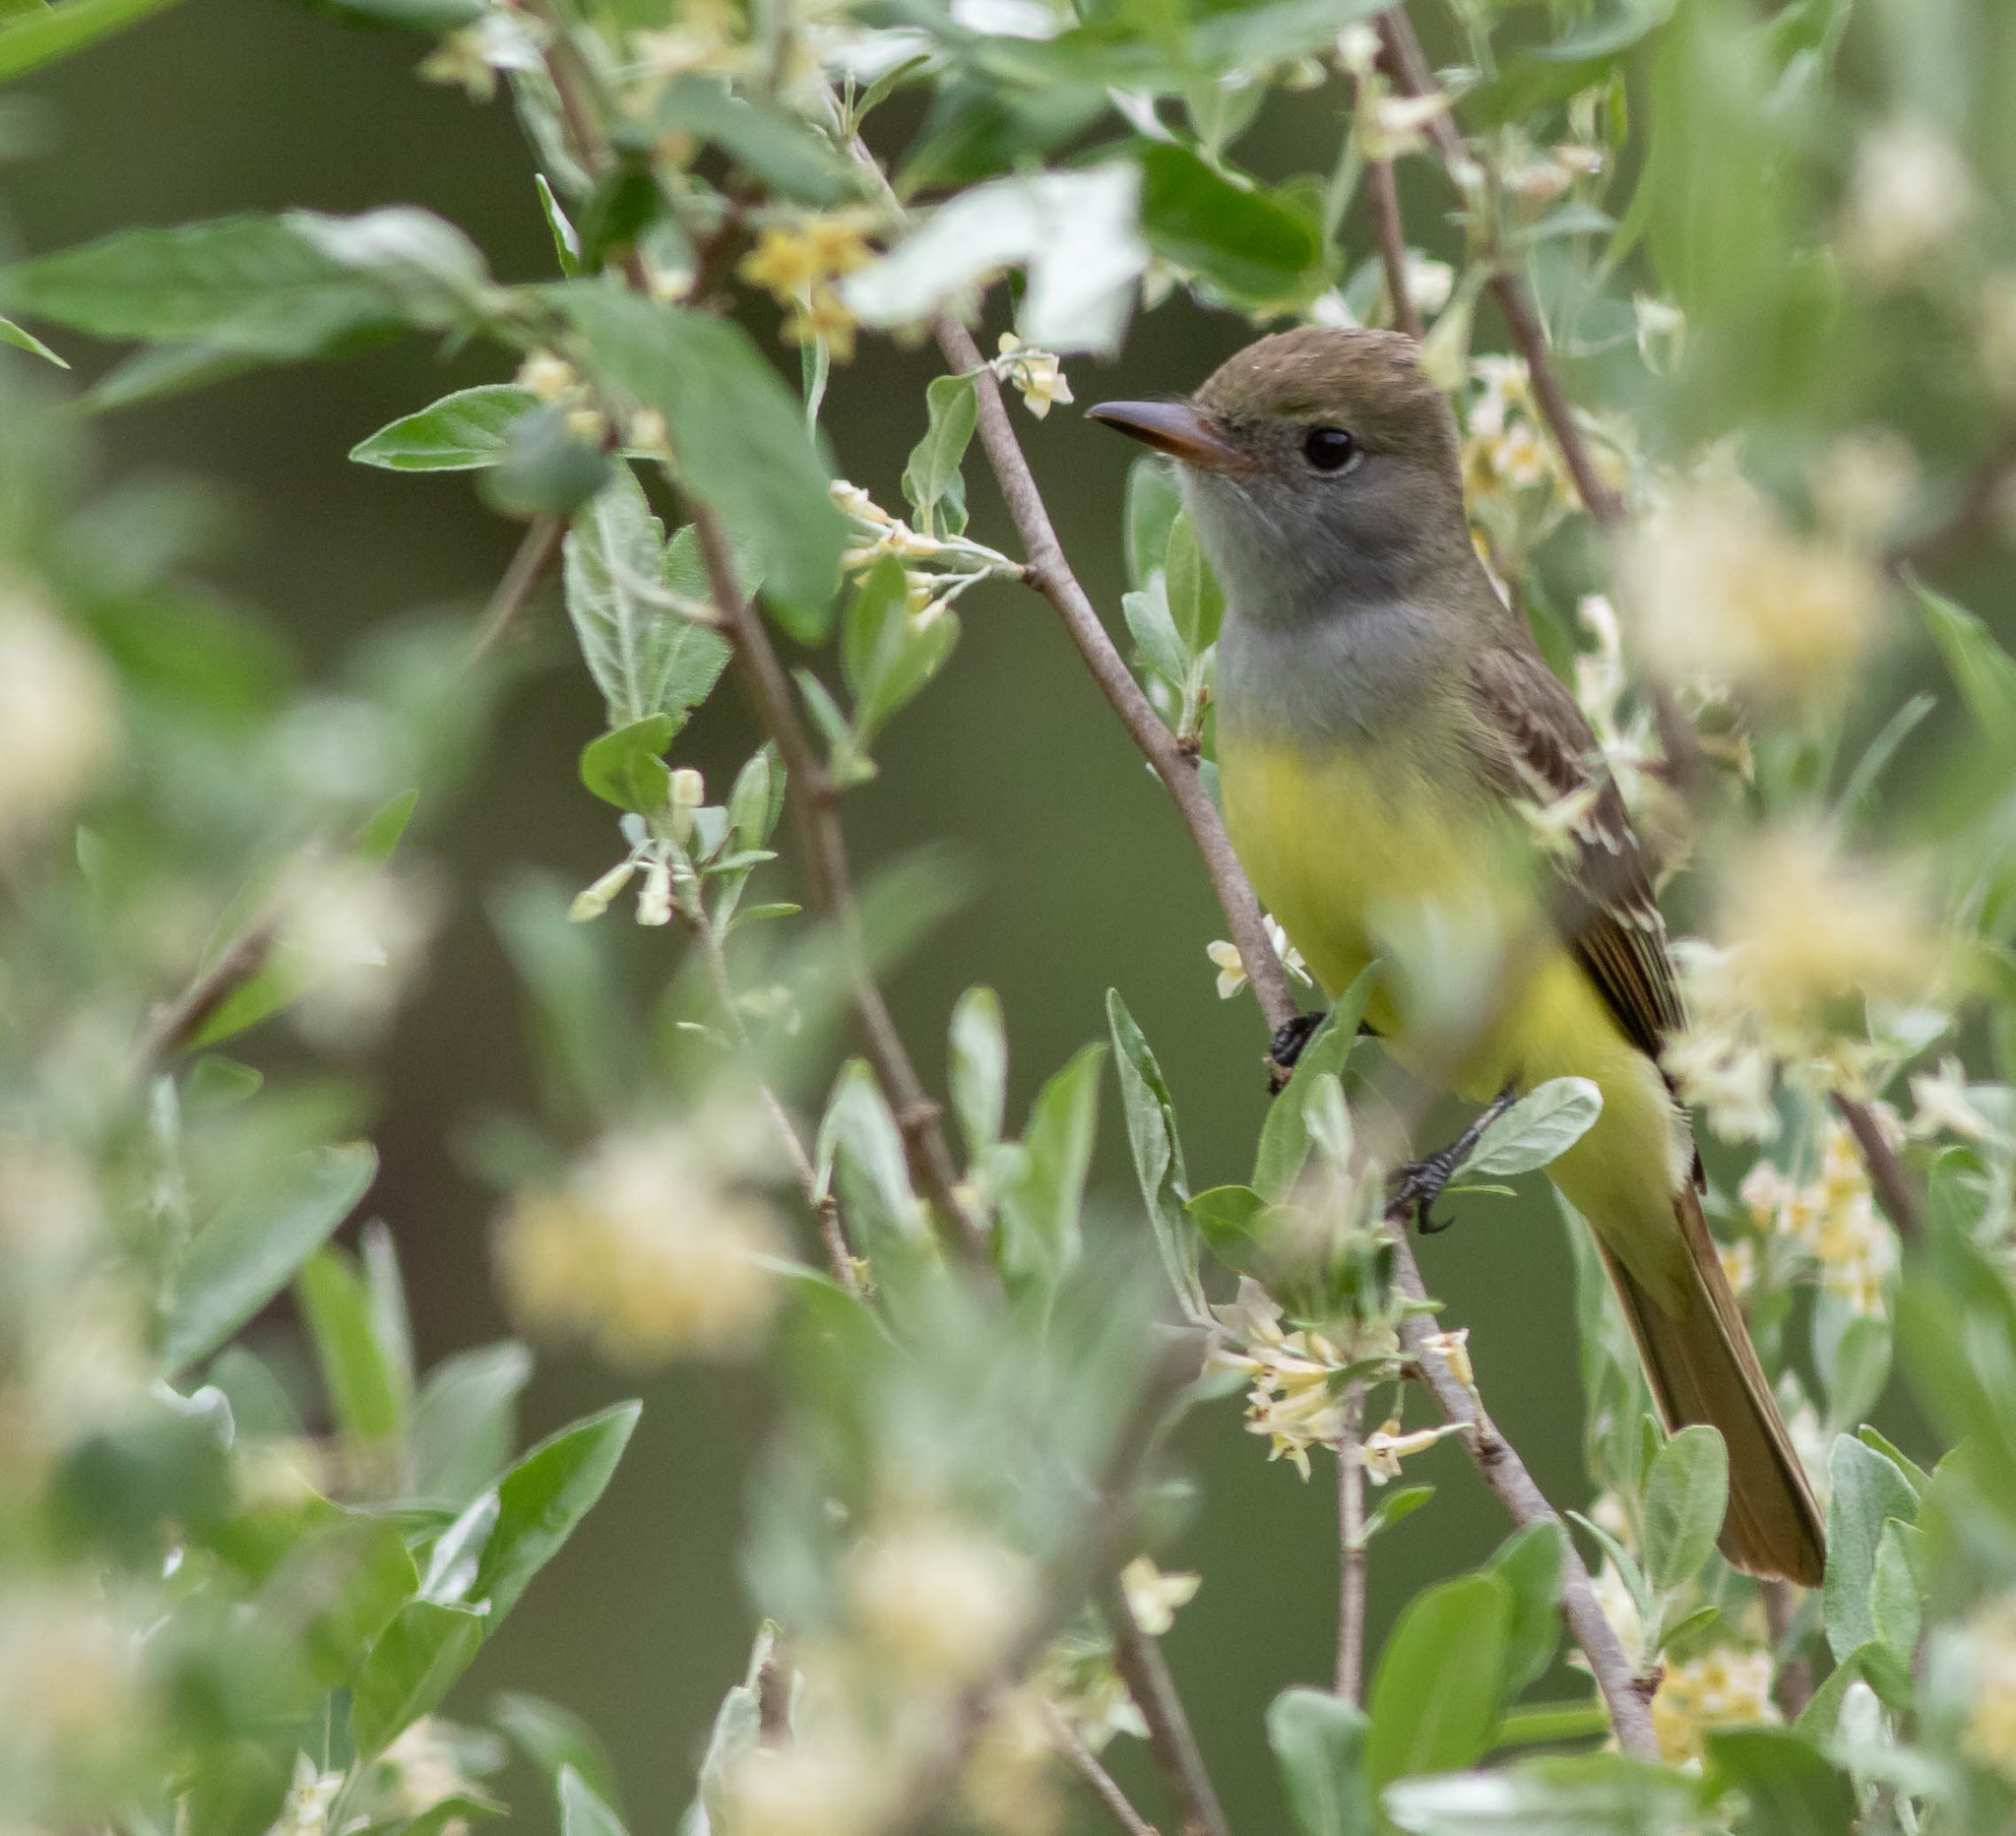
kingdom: Animalia
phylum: Chordata
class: Aves
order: Passeriformes
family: Tyrannidae
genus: Myiarchus
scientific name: Myiarchus crinitus
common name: Great crested flycatcher
